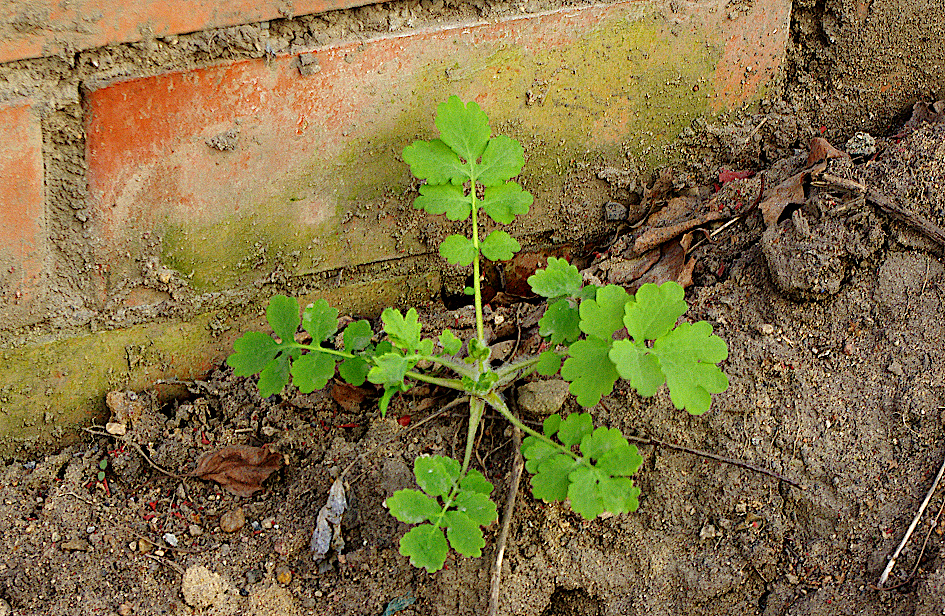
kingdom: Plantae
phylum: Tracheophyta
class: Magnoliopsida
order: Ranunculales
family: Papaveraceae
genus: Chelidonium
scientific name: Chelidonium majus
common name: Greater celandine
